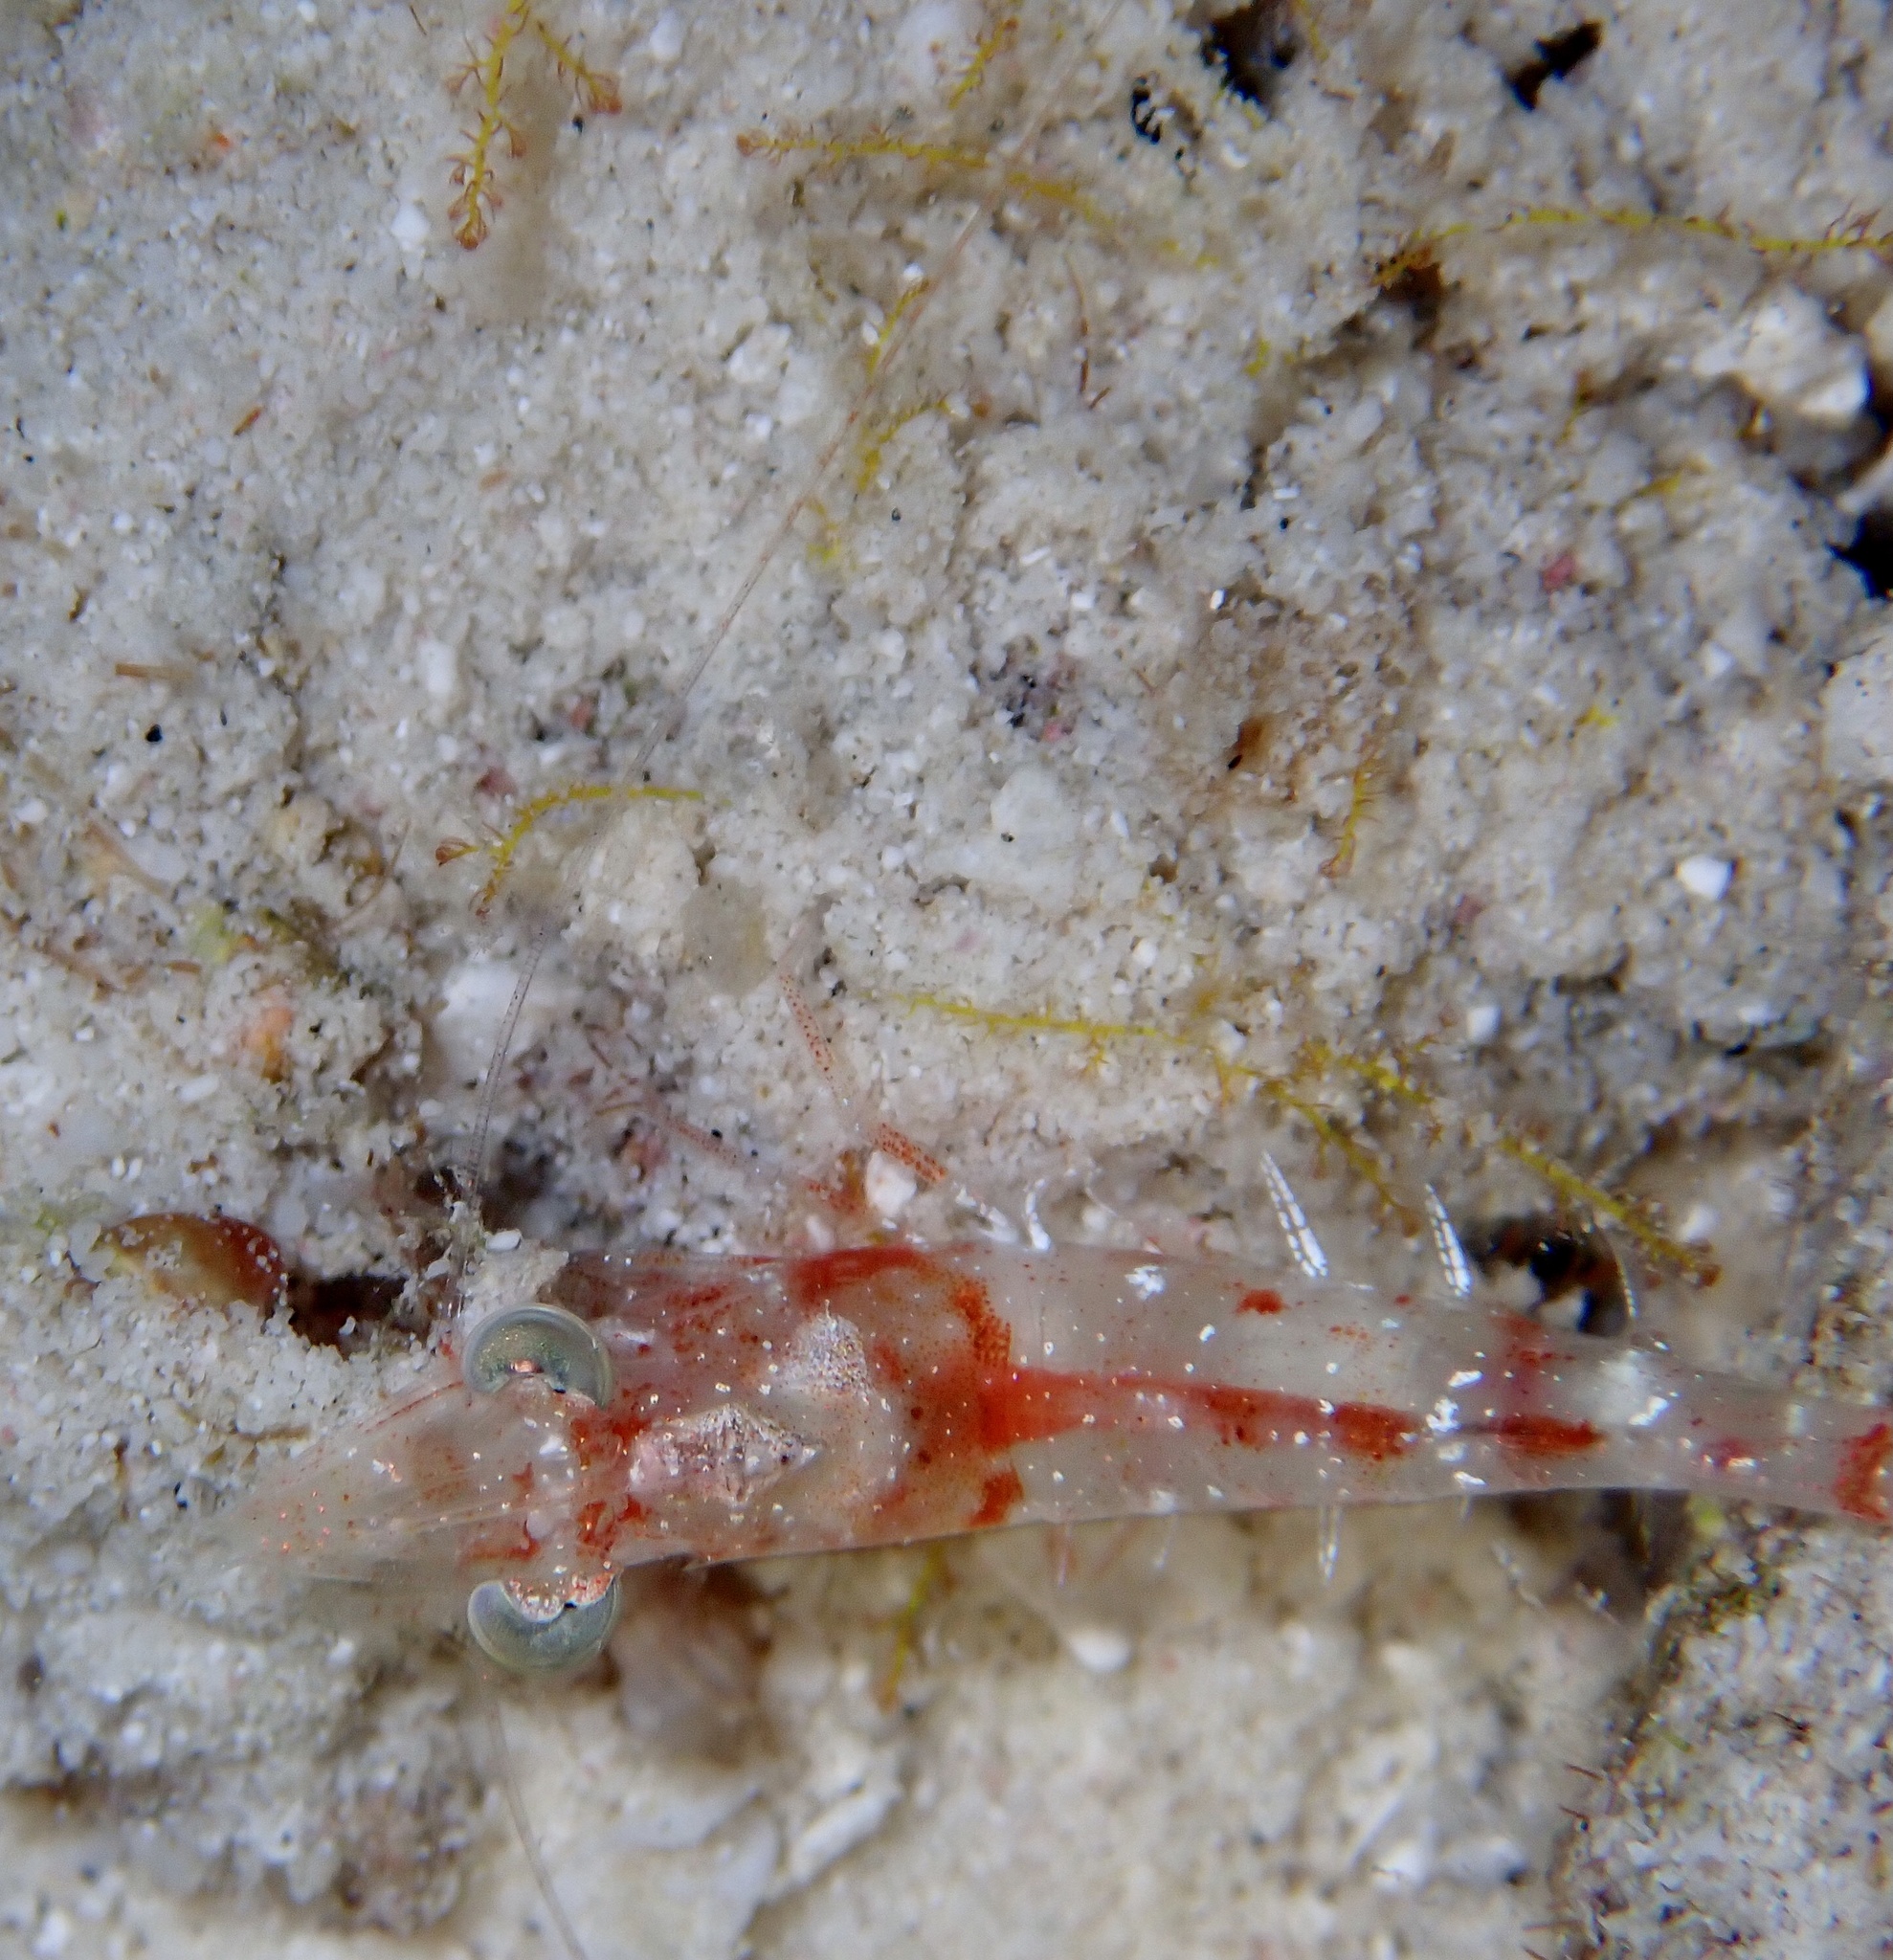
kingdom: Animalia
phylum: Arthropoda
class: Malacostraca
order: Decapoda
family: Penaeidae
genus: Metapenaeopsis
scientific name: Metapenaeopsis goodei
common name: Caribbean velvet shrimp
